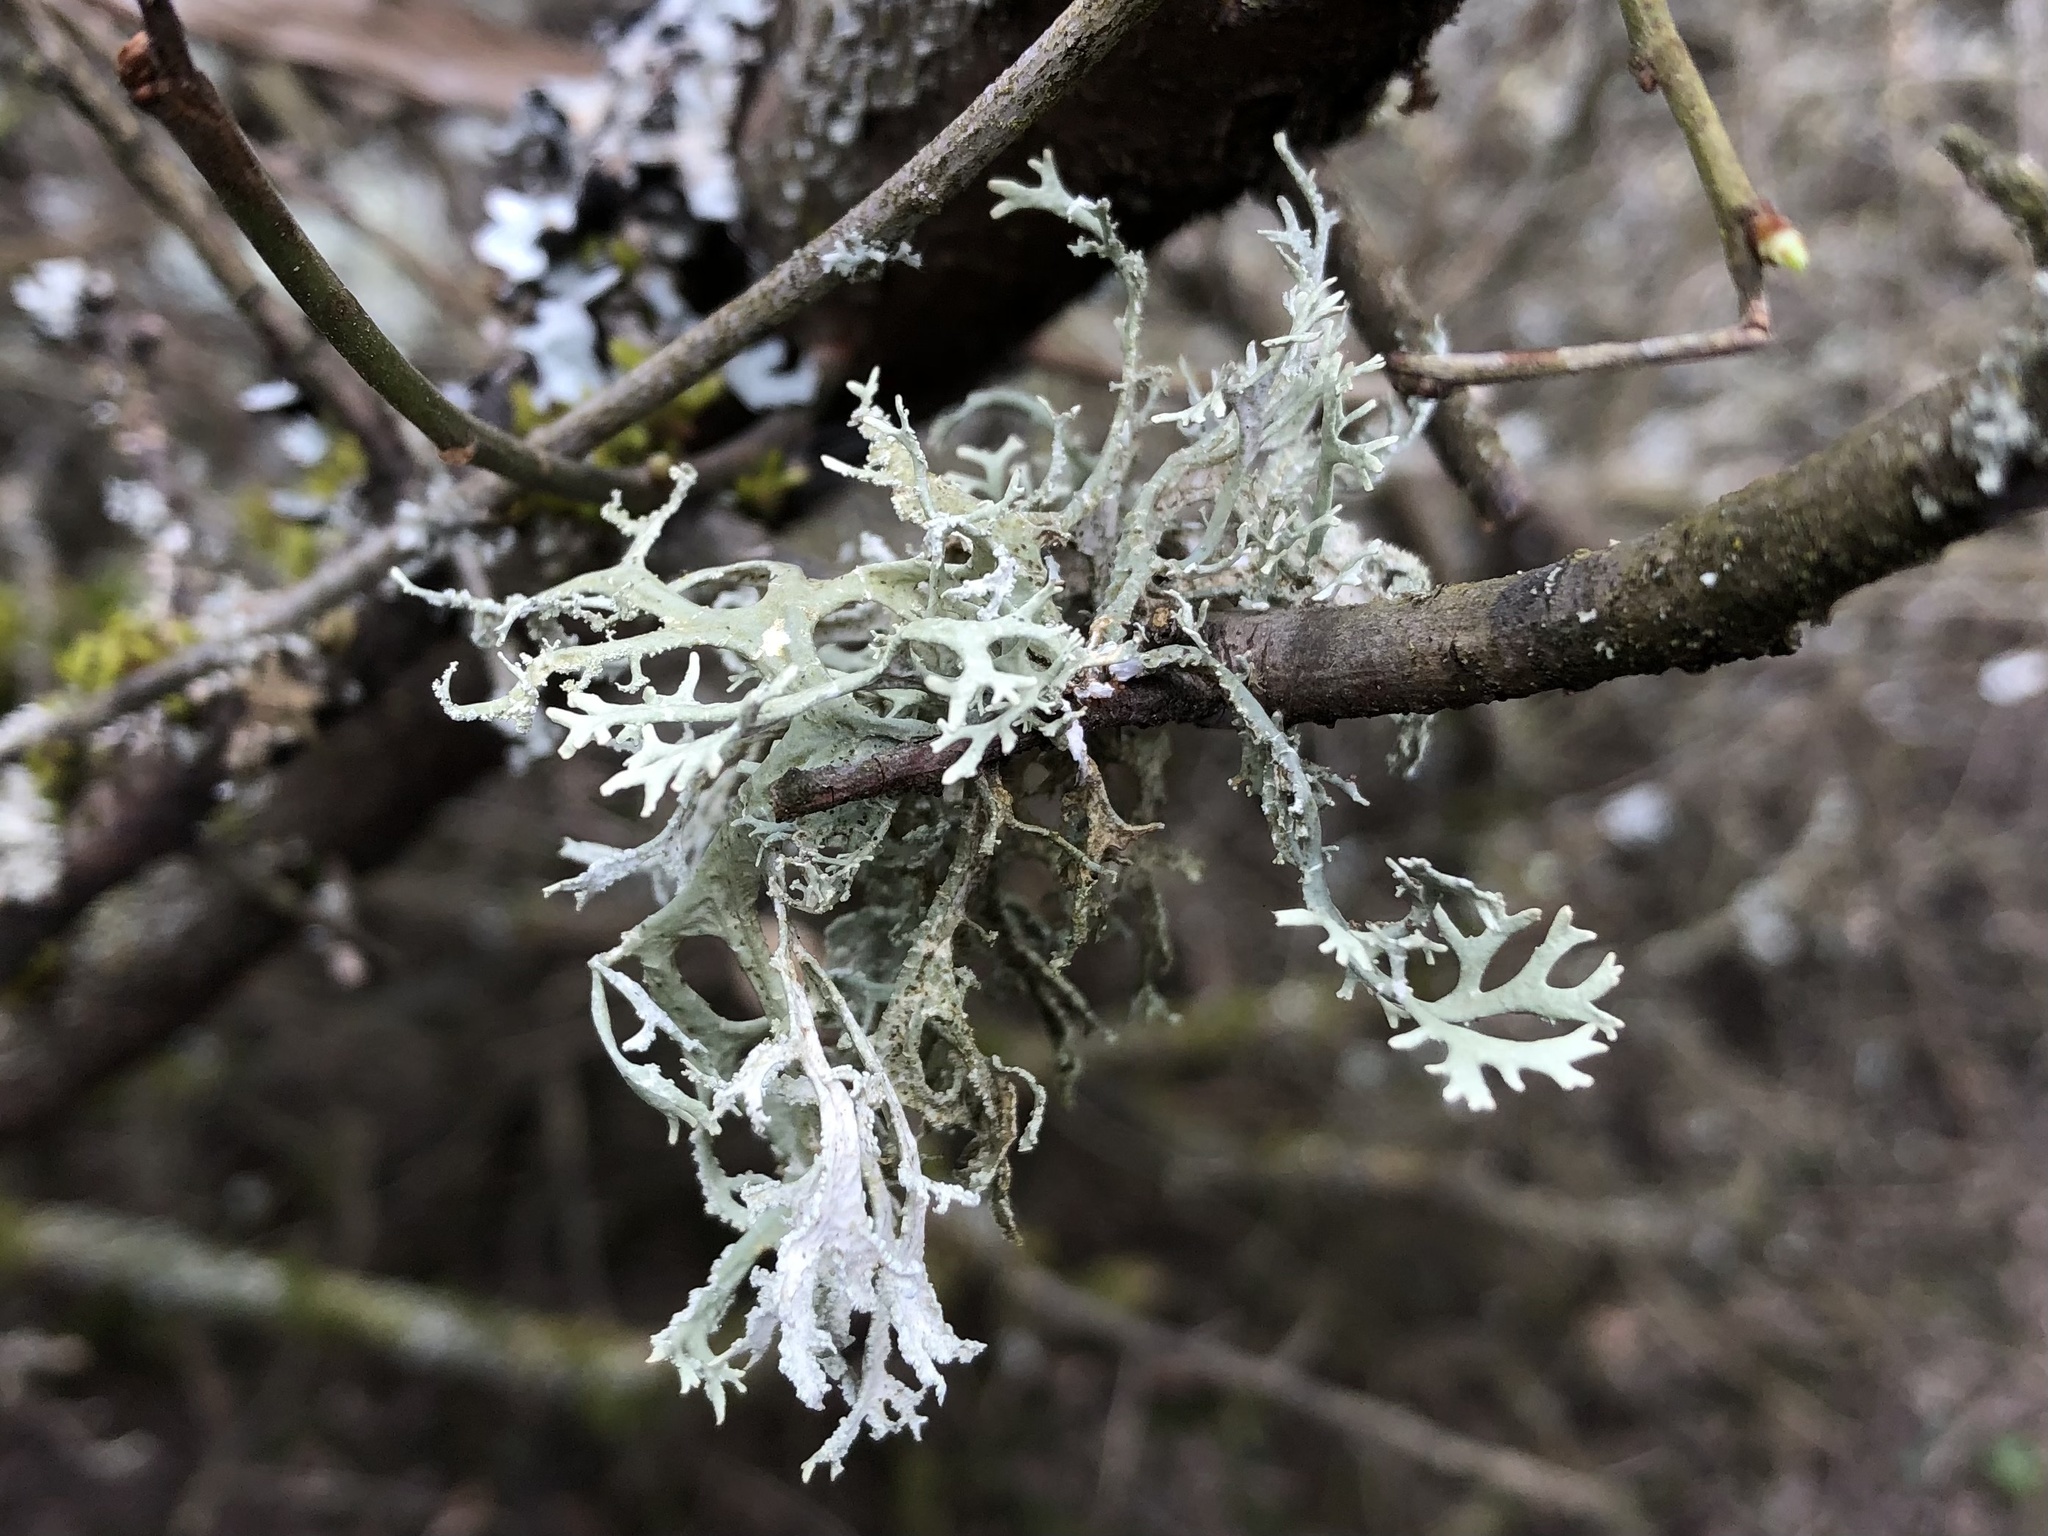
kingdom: Fungi
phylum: Ascomycota
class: Lecanoromycetes
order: Lecanorales
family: Parmeliaceae
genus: Evernia
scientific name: Evernia prunastri
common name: Oak moss
